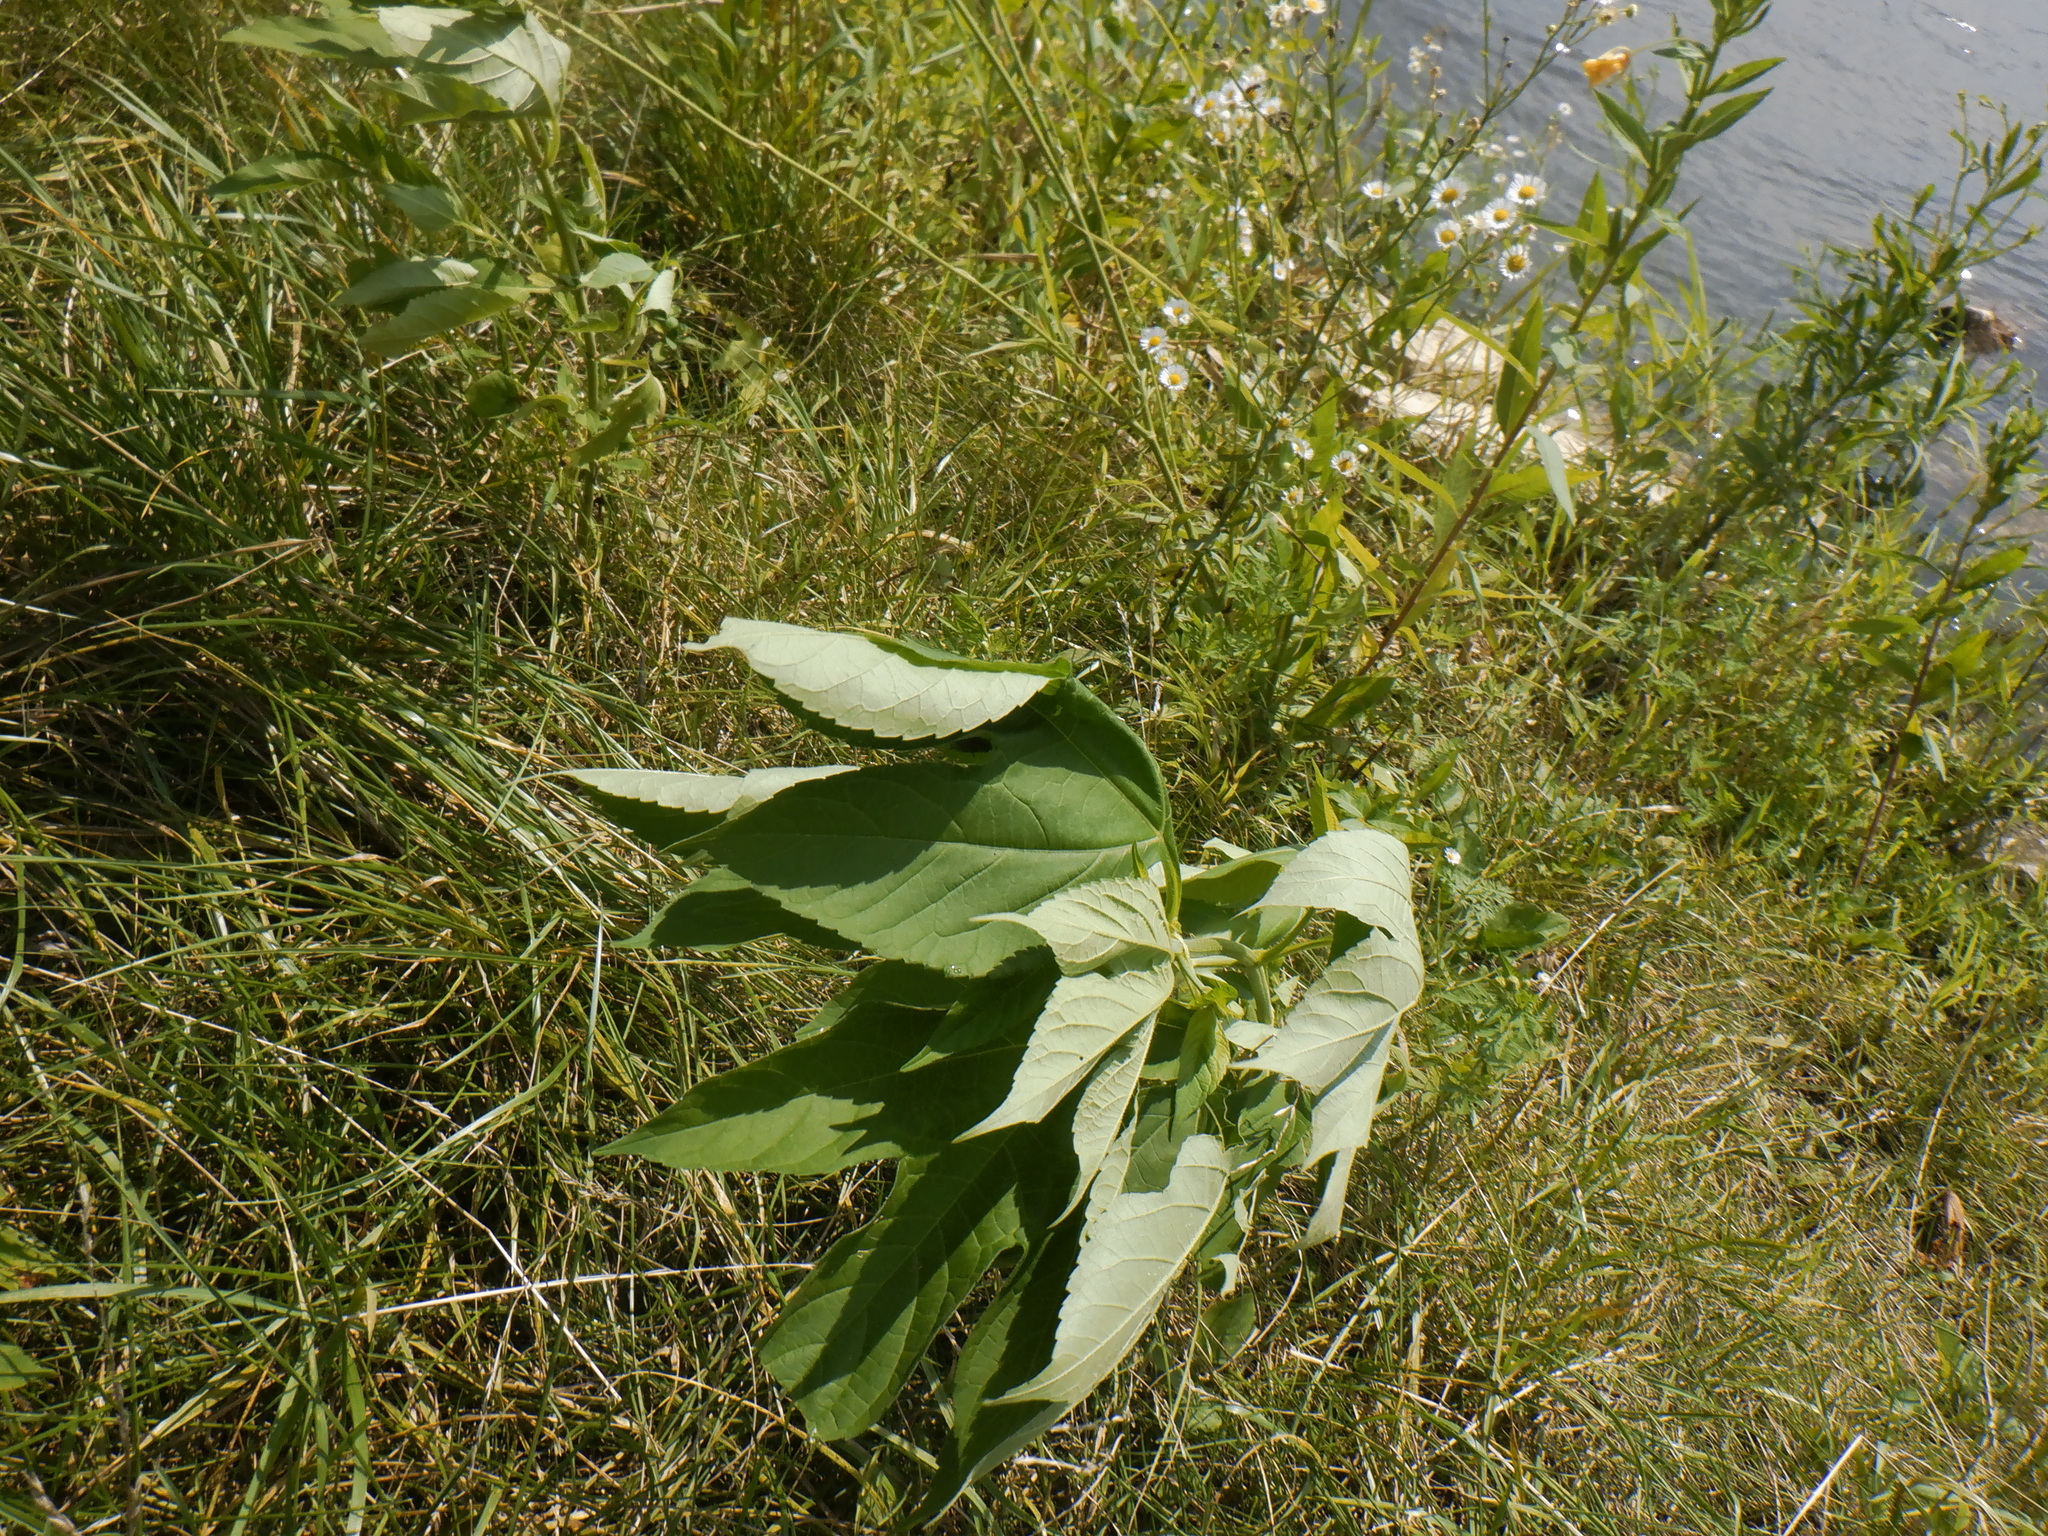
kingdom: Plantae
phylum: Tracheophyta
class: Magnoliopsida
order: Asterales
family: Asteraceae
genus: Ambrosia
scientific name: Ambrosia trifida
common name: Giant ragweed
